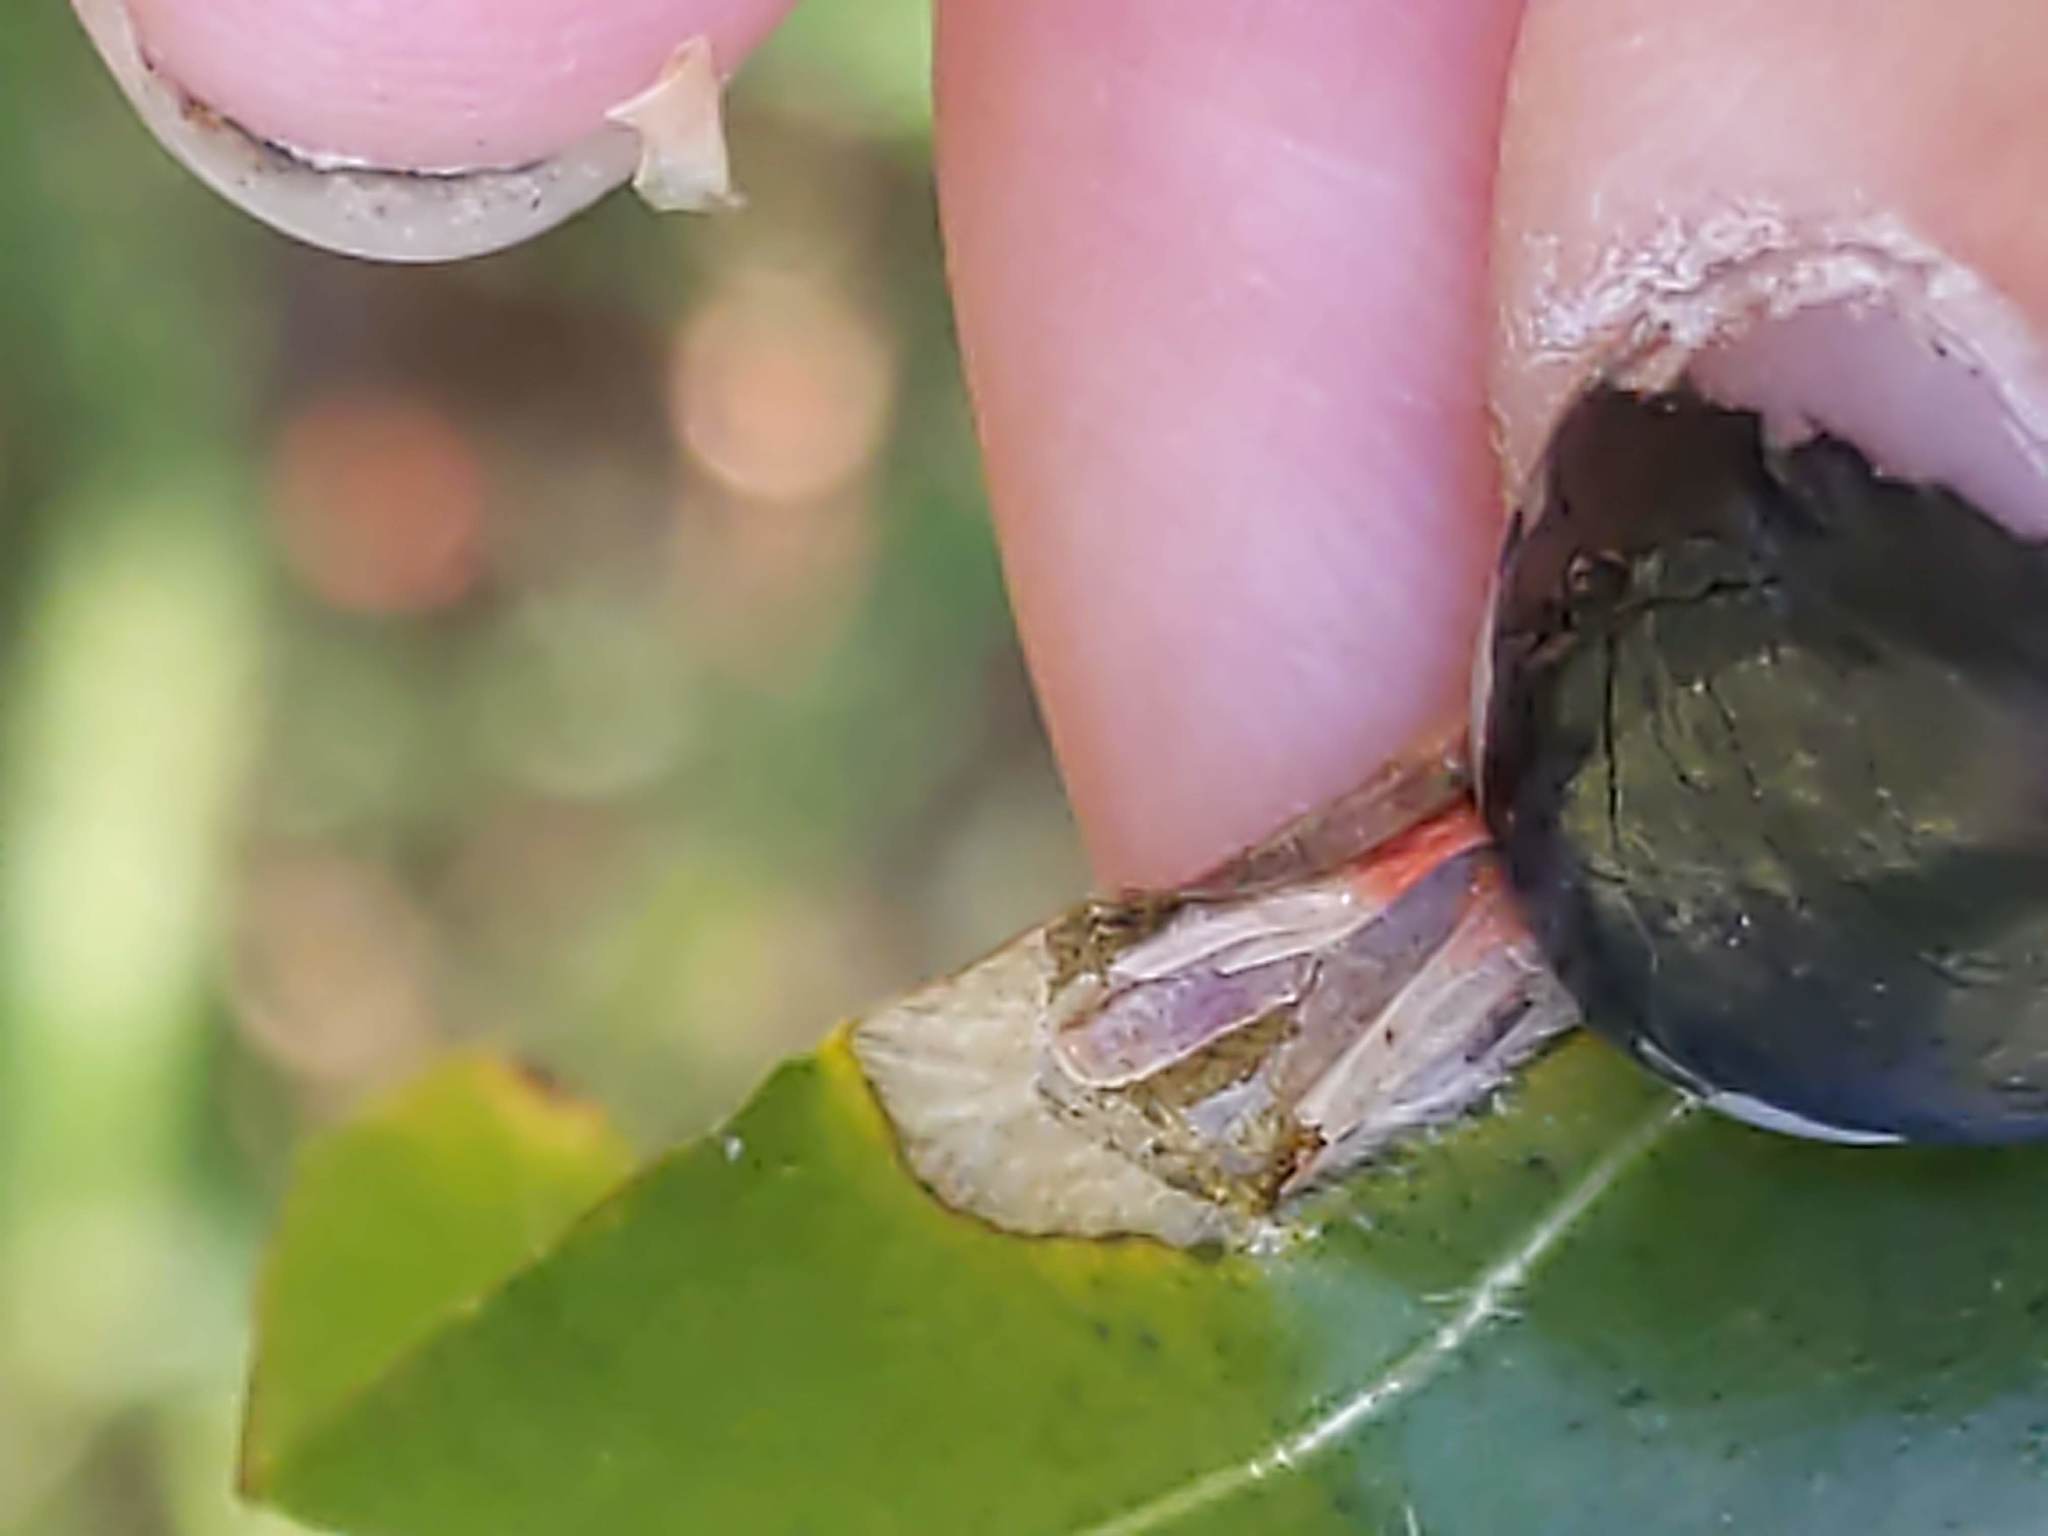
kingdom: Animalia
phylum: Arthropoda
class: Insecta
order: Lepidoptera
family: Tischeriidae
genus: Coptotriche
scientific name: Coptotriche citrinipennella
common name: The golden sweeper
